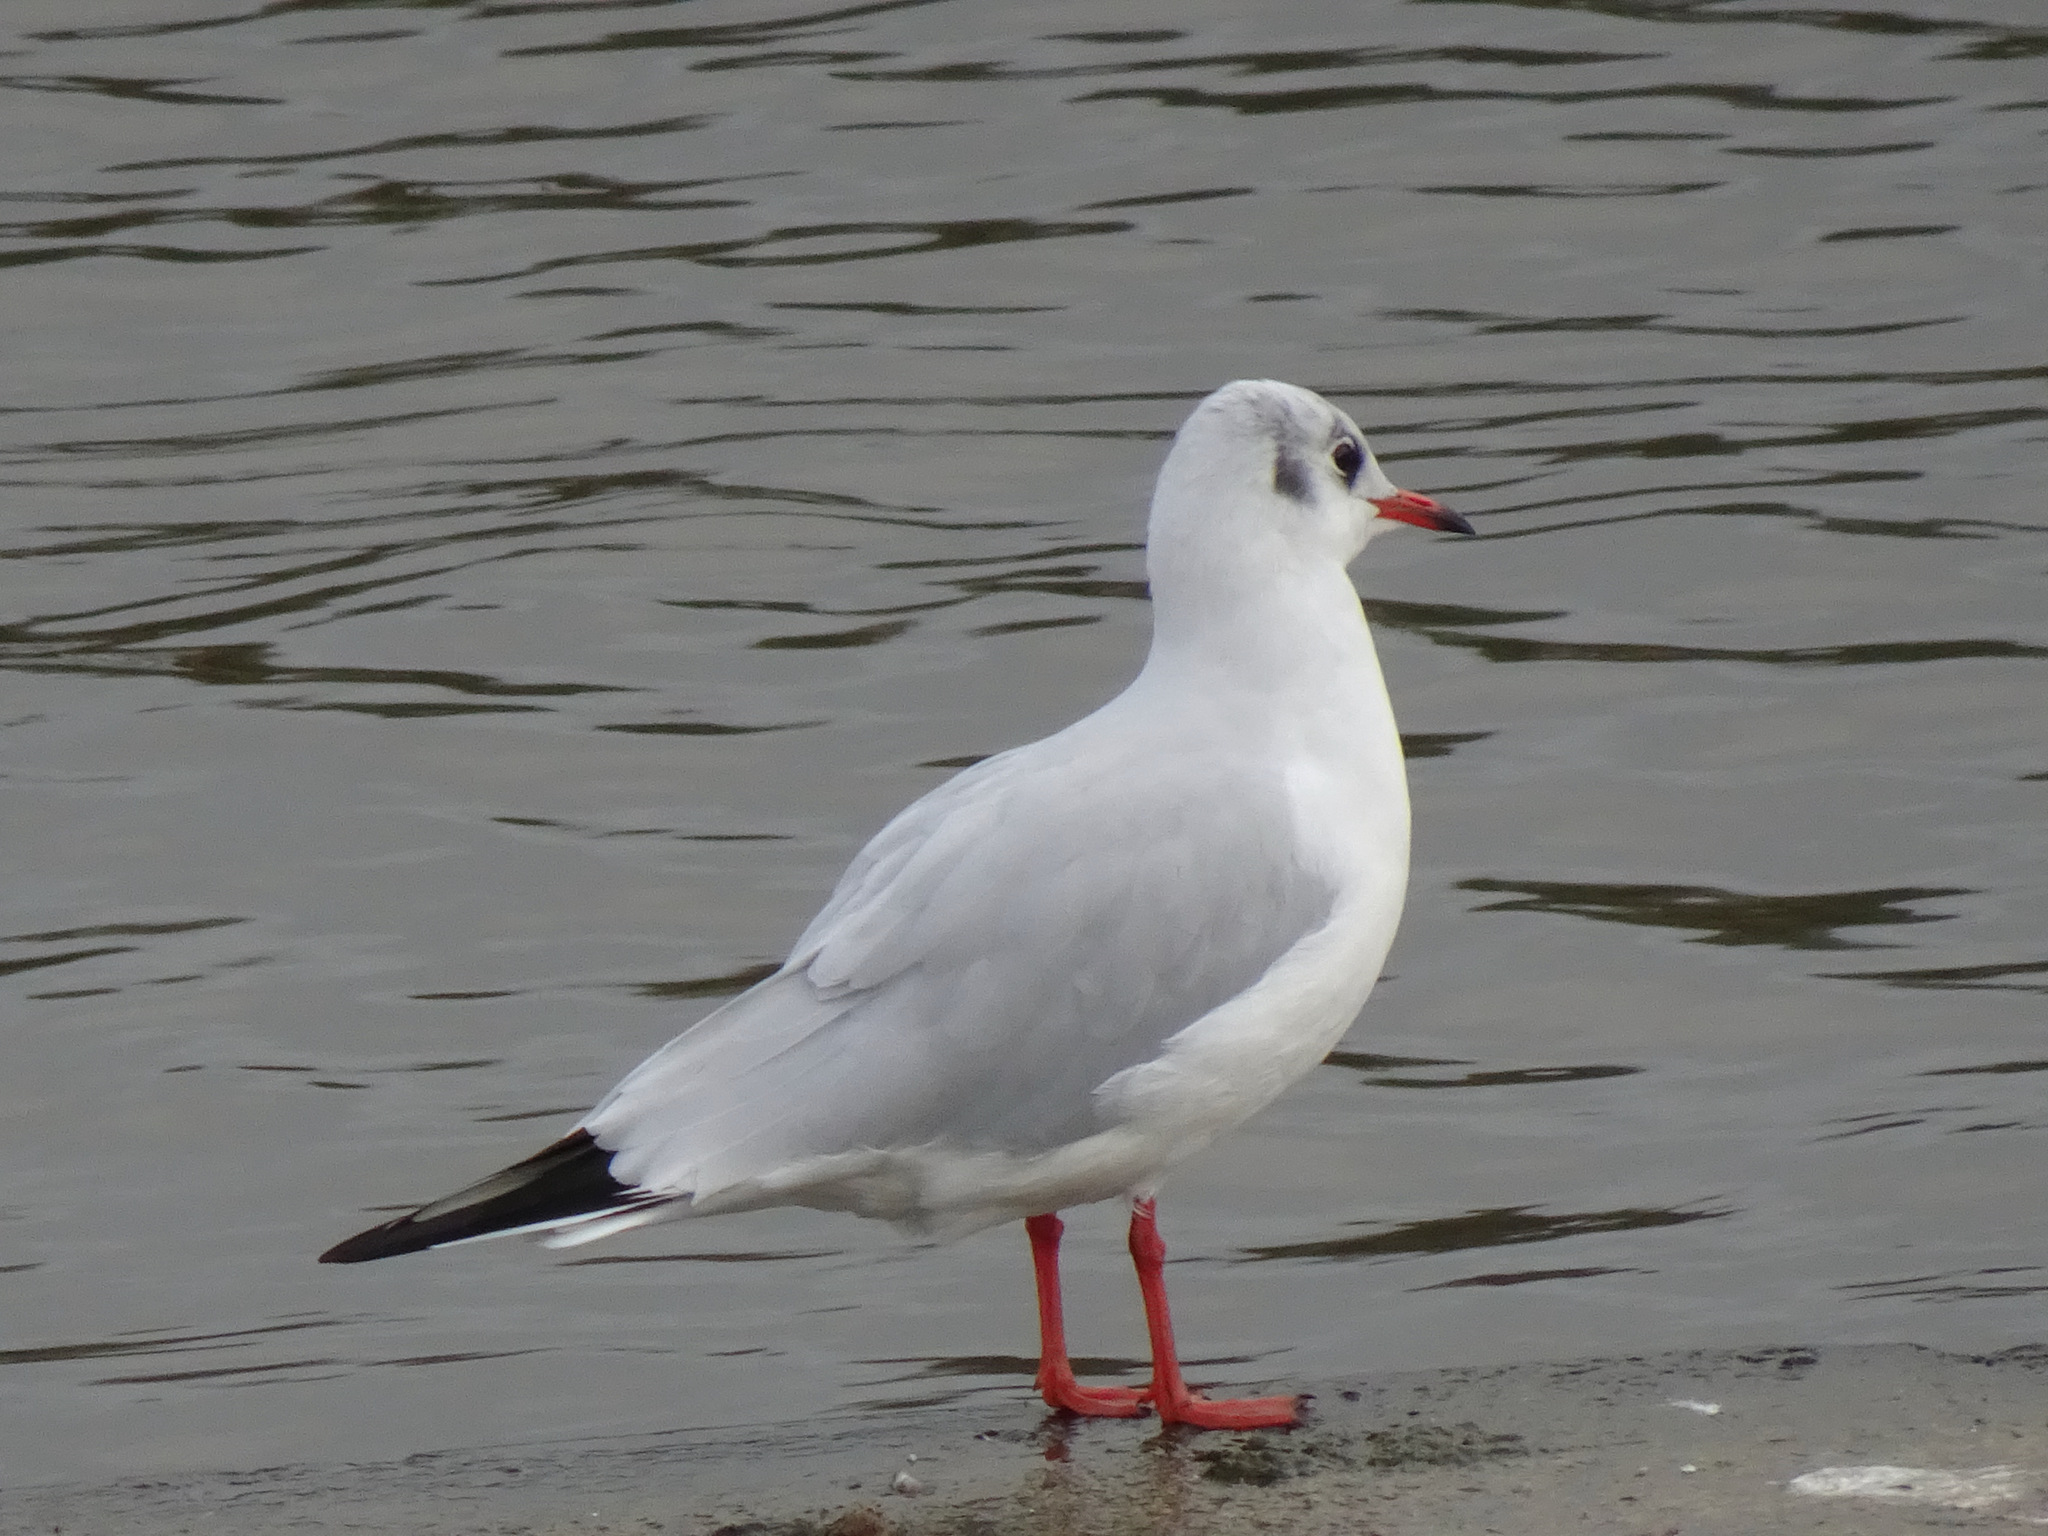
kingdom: Animalia
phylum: Chordata
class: Aves
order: Charadriiformes
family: Laridae
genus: Chroicocephalus
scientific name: Chroicocephalus ridibundus
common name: Black-headed gull
